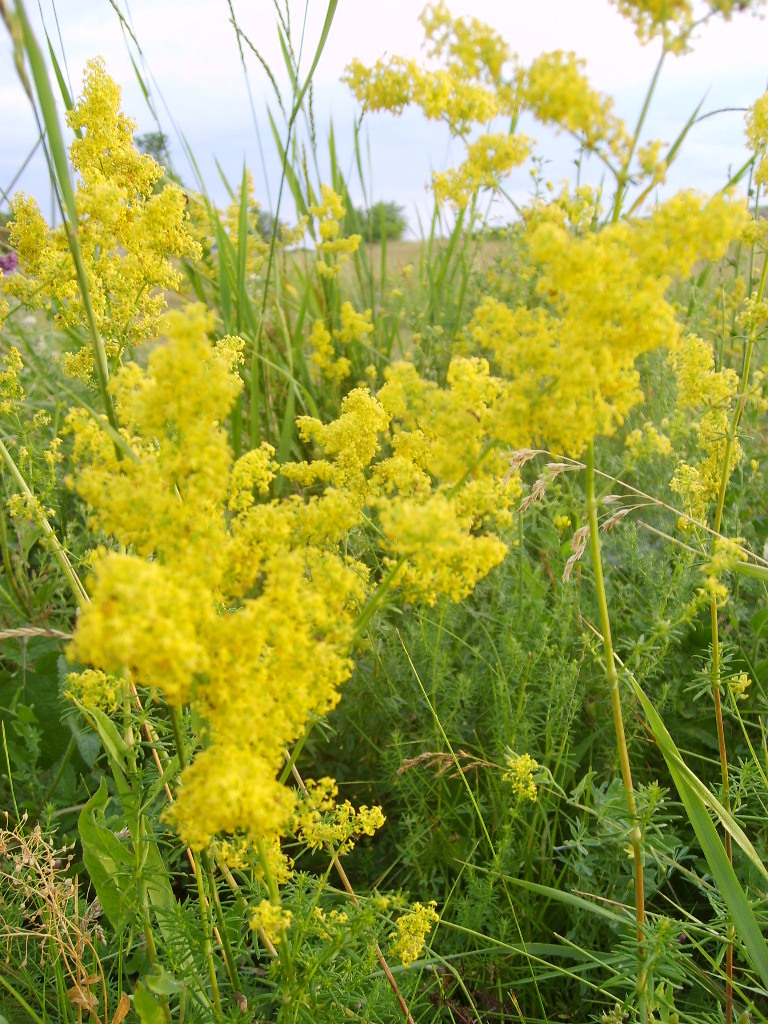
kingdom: Plantae
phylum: Tracheophyta
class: Magnoliopsida
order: Gentianales
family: Rubiaceae
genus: Galium
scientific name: Galium verum
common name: Lady's bedstraw
